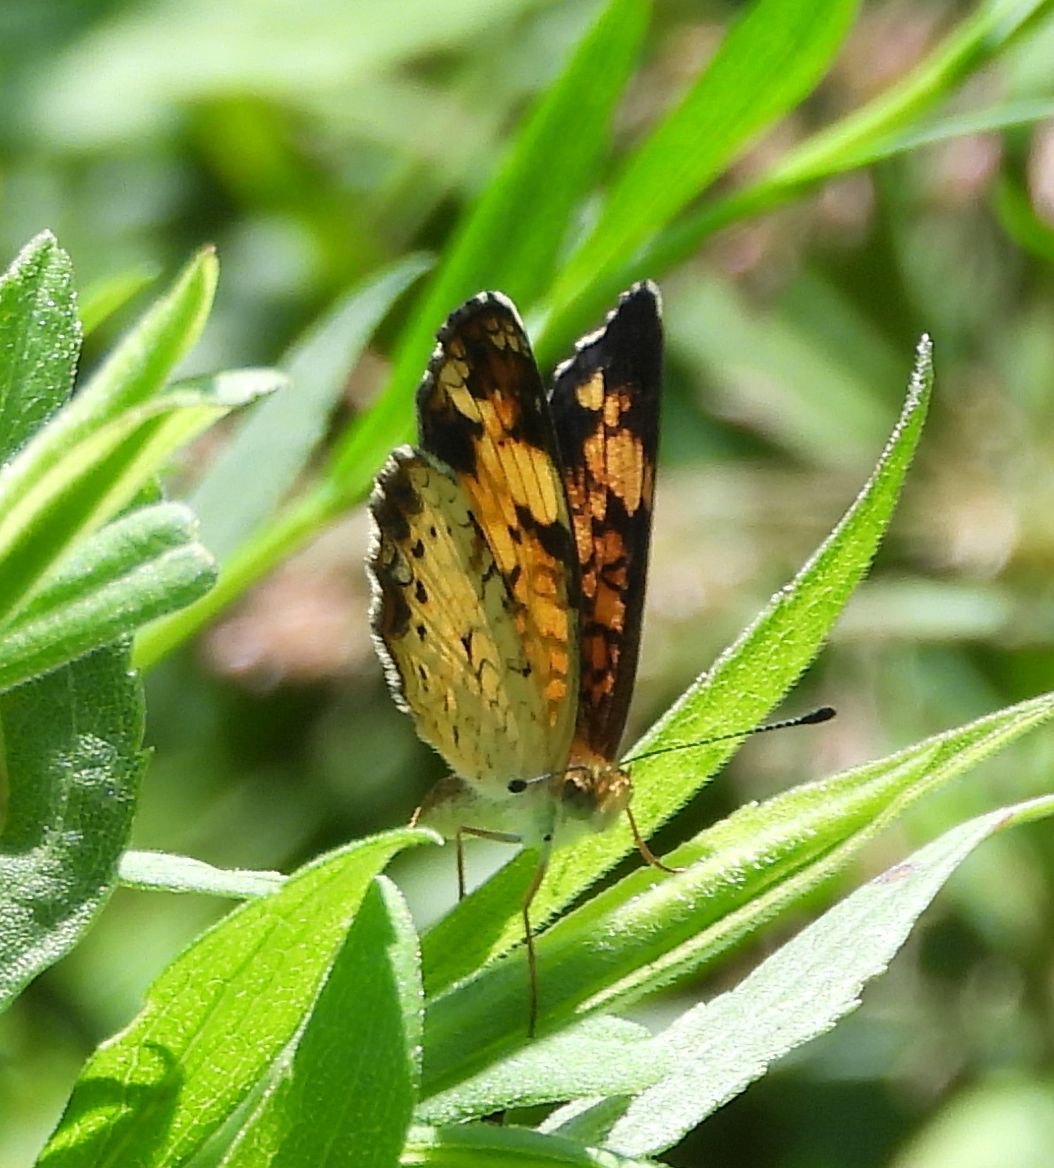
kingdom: Animalia
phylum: Arthropoda
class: Insecta
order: Lepidoptera
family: Nymphalidae
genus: Phyciodes
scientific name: Phyciodes tharos
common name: Pearl crescent
